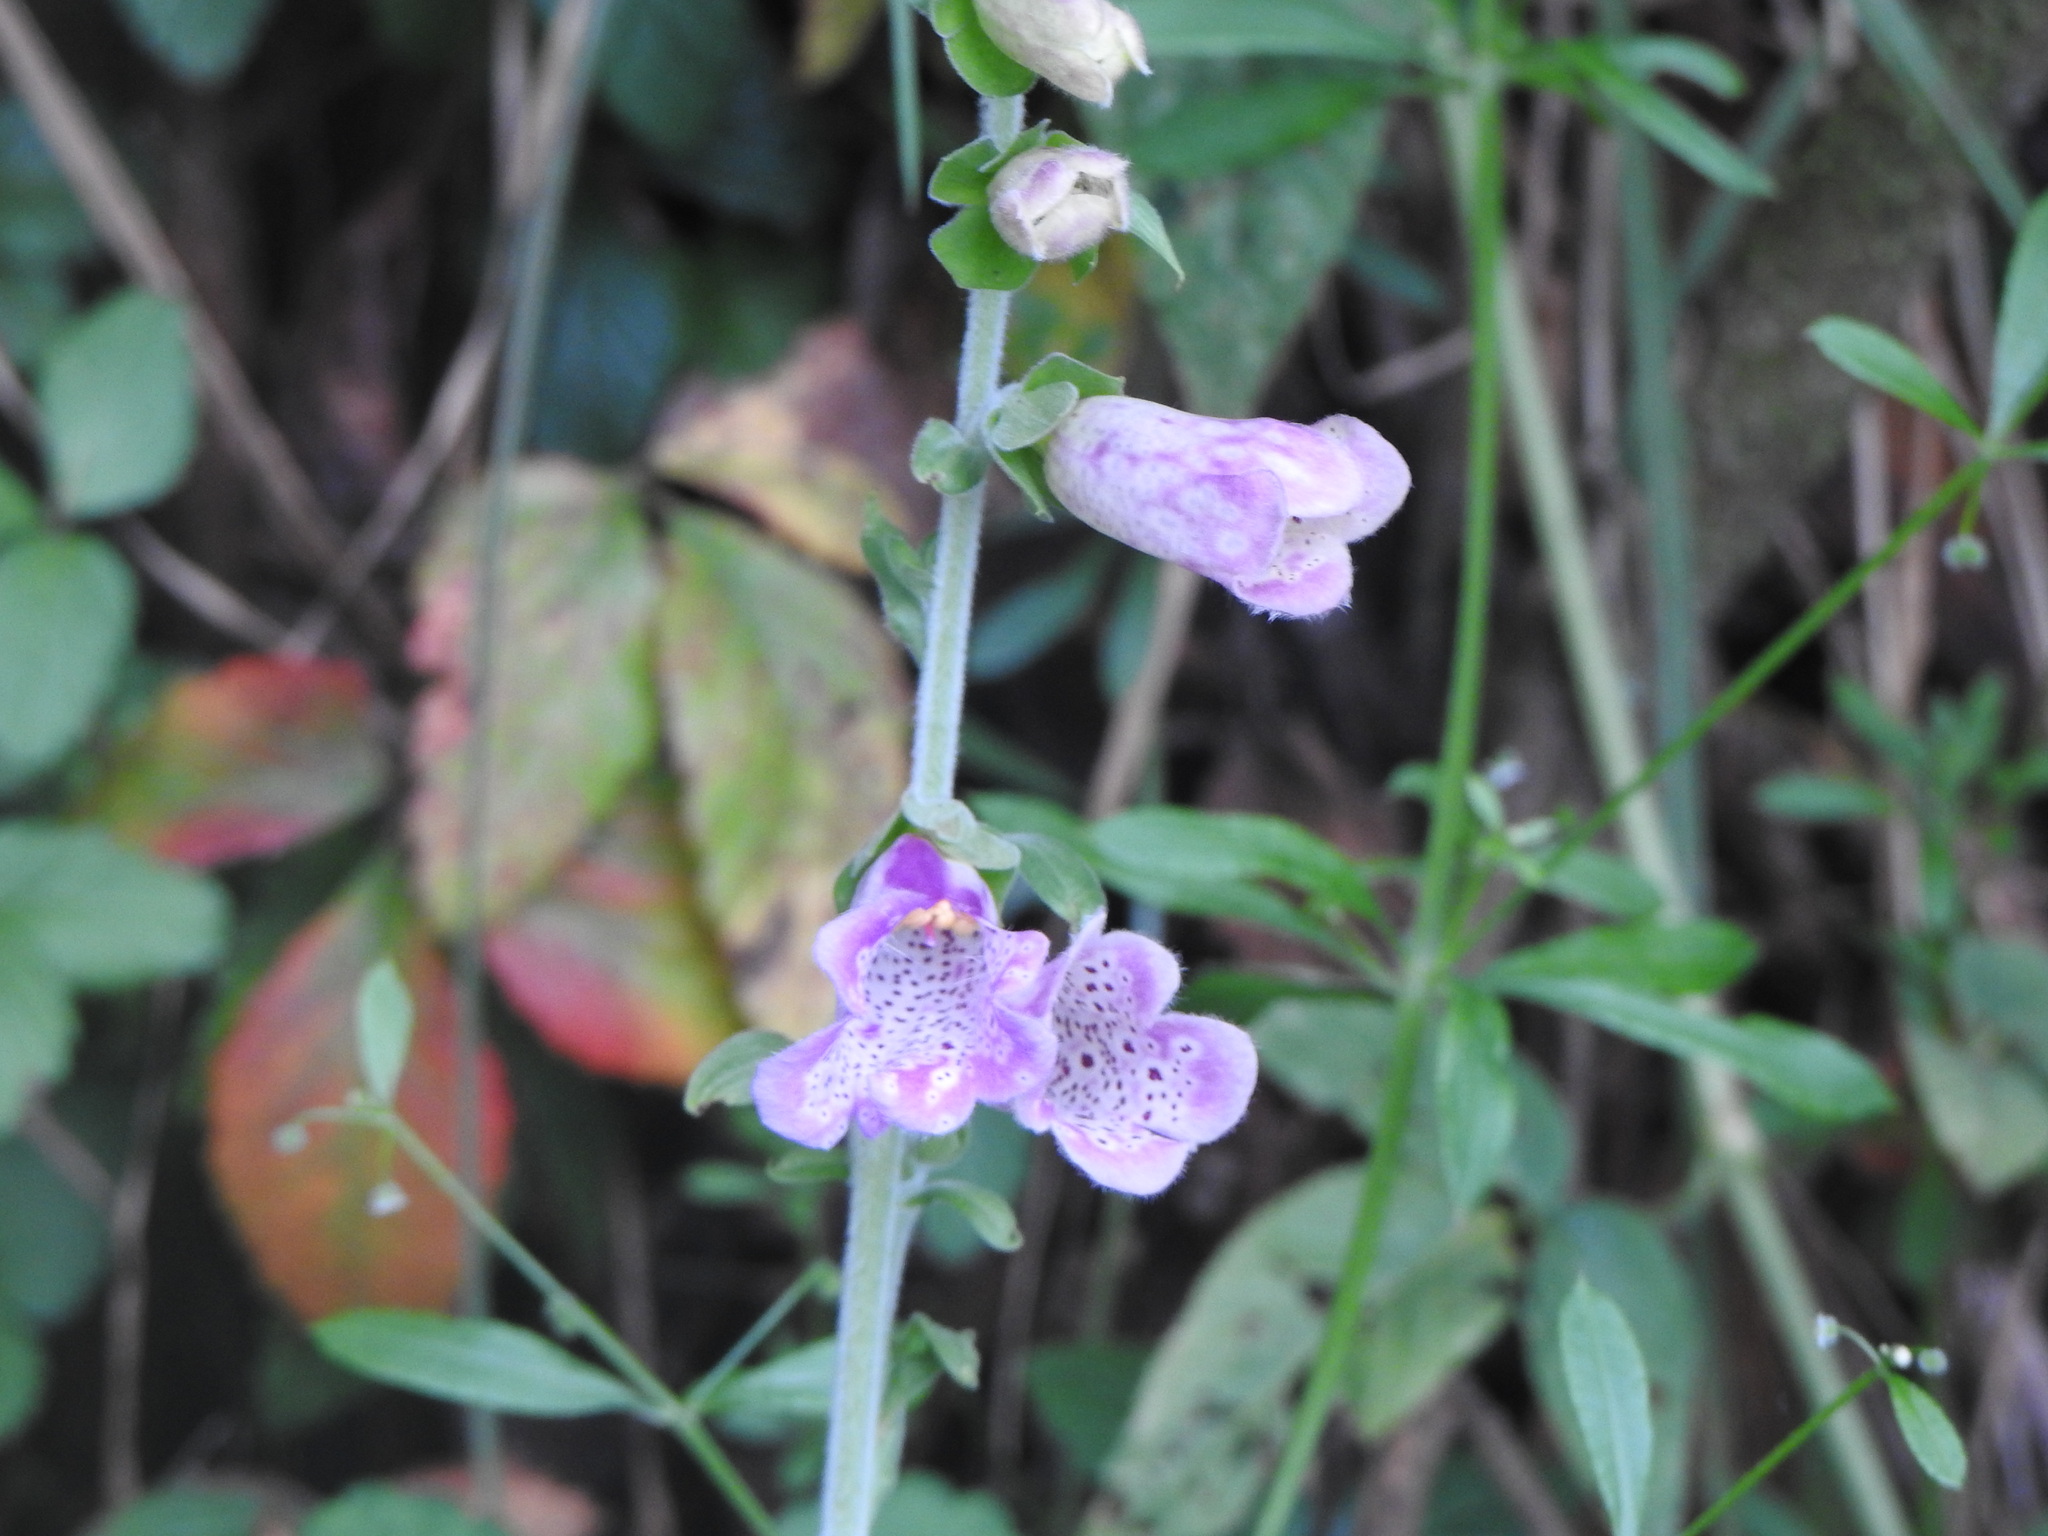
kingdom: Plantae
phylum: Tracheophyta
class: Magnoliopsida
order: Lamiales
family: Plantaginaceae
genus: Digitalis
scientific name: Digitalis purpurea
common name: Foxglove
